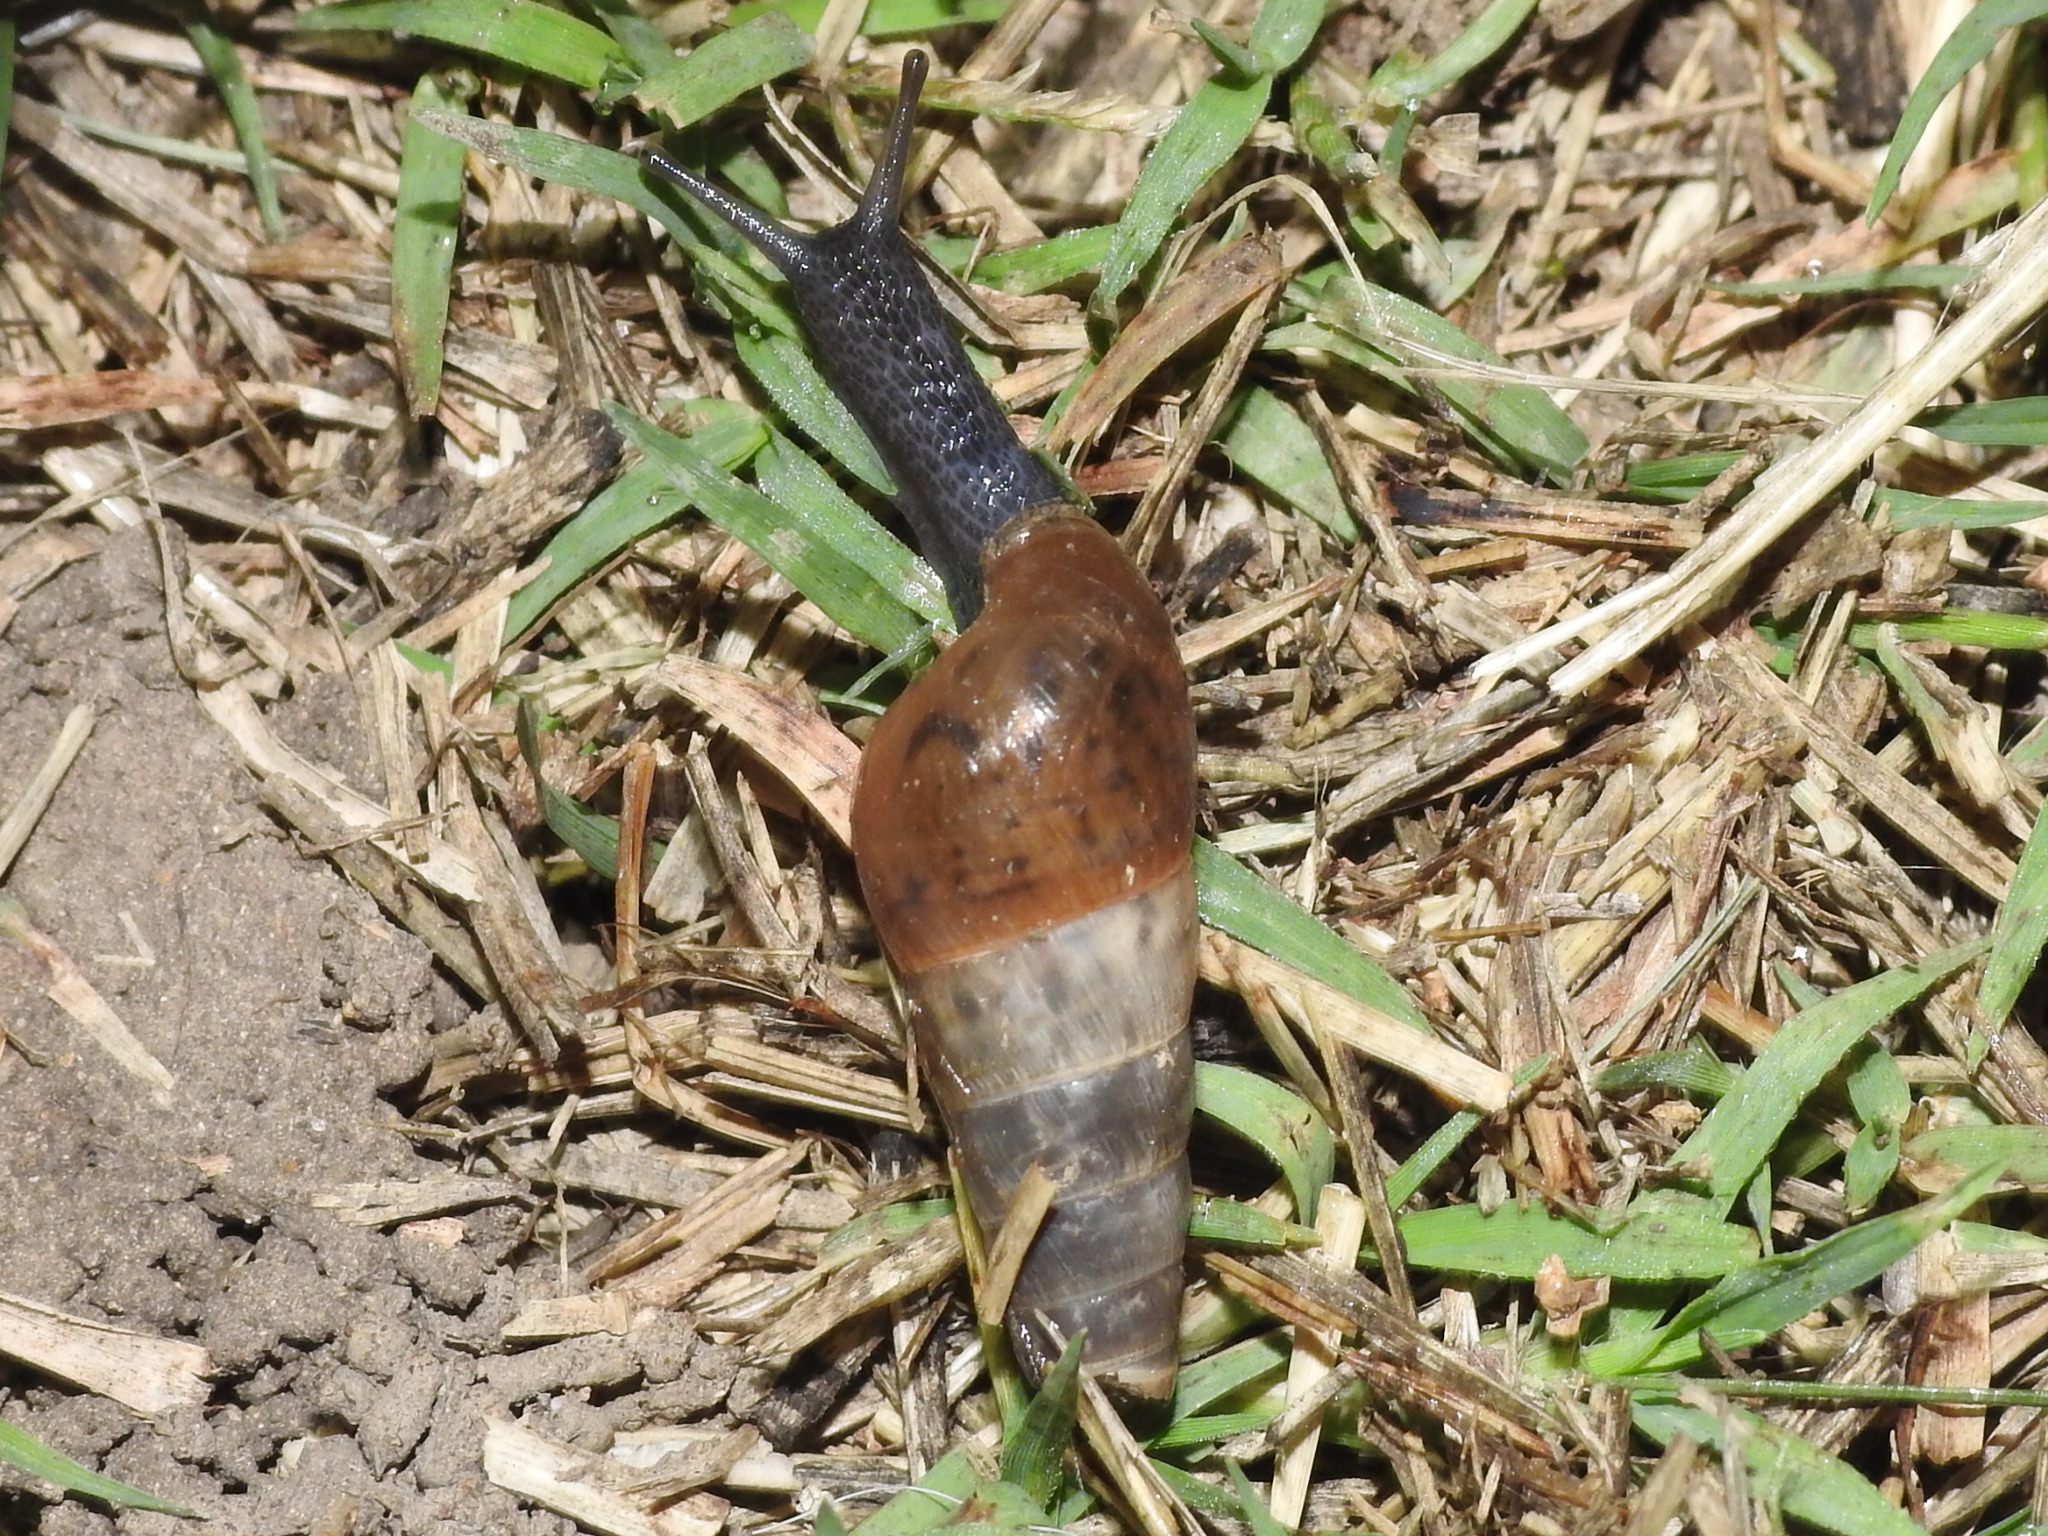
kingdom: Animalia
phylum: Mollusca
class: Gastropoda
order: Stylommatophora
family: Achatinidae
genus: Rumina
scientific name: Rumina decollata
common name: Decollate snail
